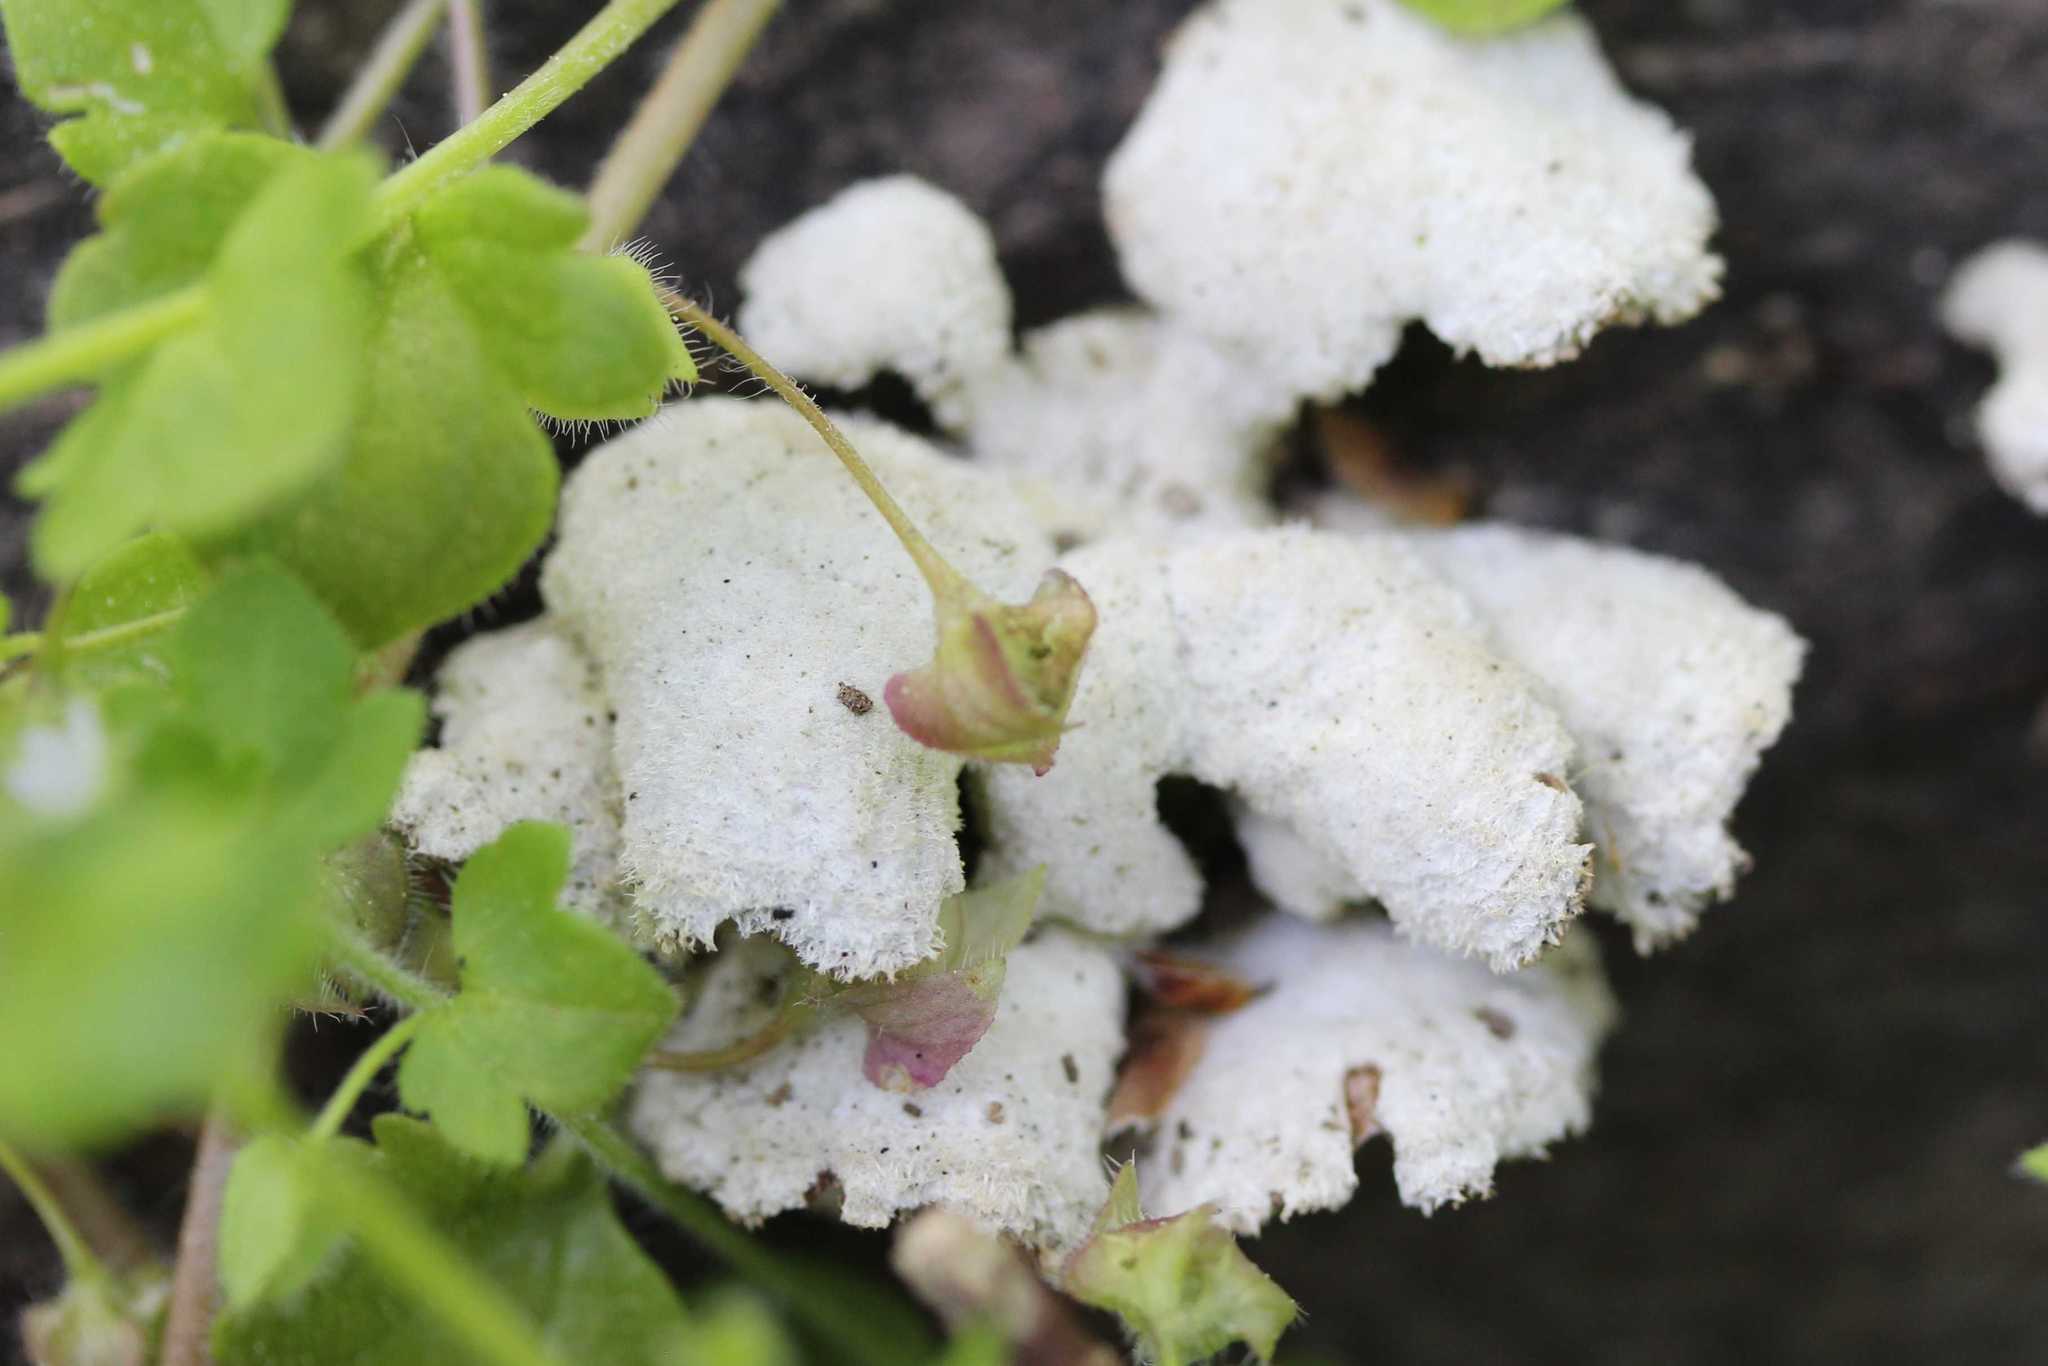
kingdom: Fungi
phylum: Basidiomycota
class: Agaricomycetes
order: Agaricales
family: Schizophyllaceae
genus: Schizophyllum
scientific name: Schizophyllum commune
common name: Common porecrust
